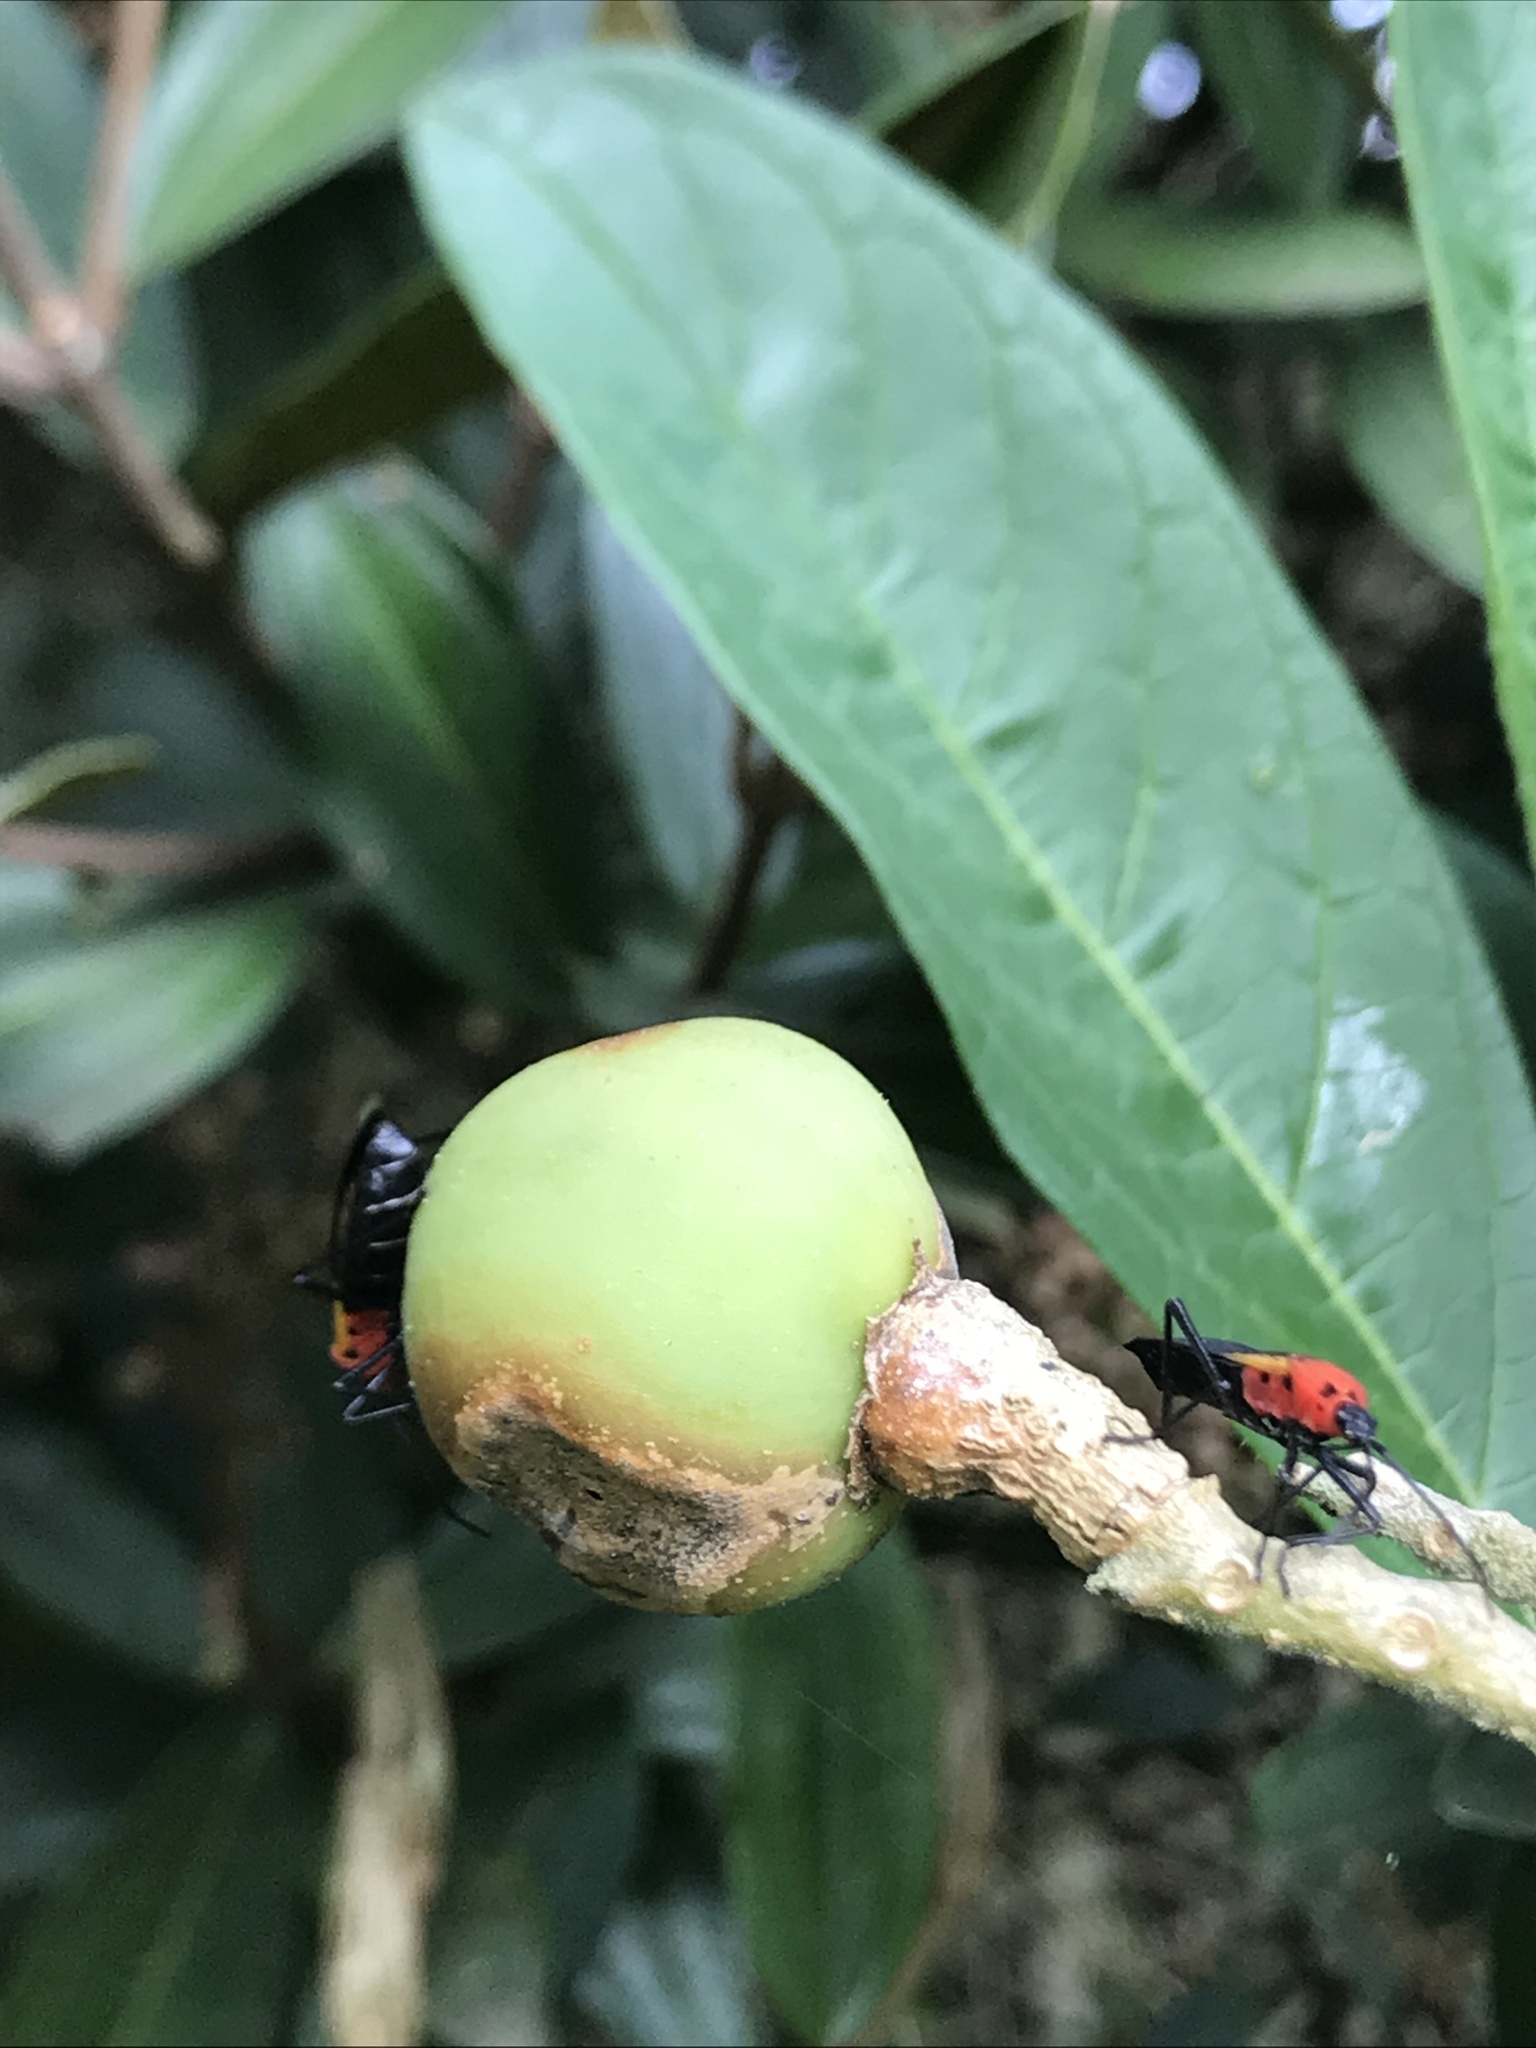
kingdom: Animalia
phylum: Arthropoda
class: Insecta
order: Hemiptera
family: Lygaeidae
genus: Acroleucus
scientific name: Acroleucus nobilis
